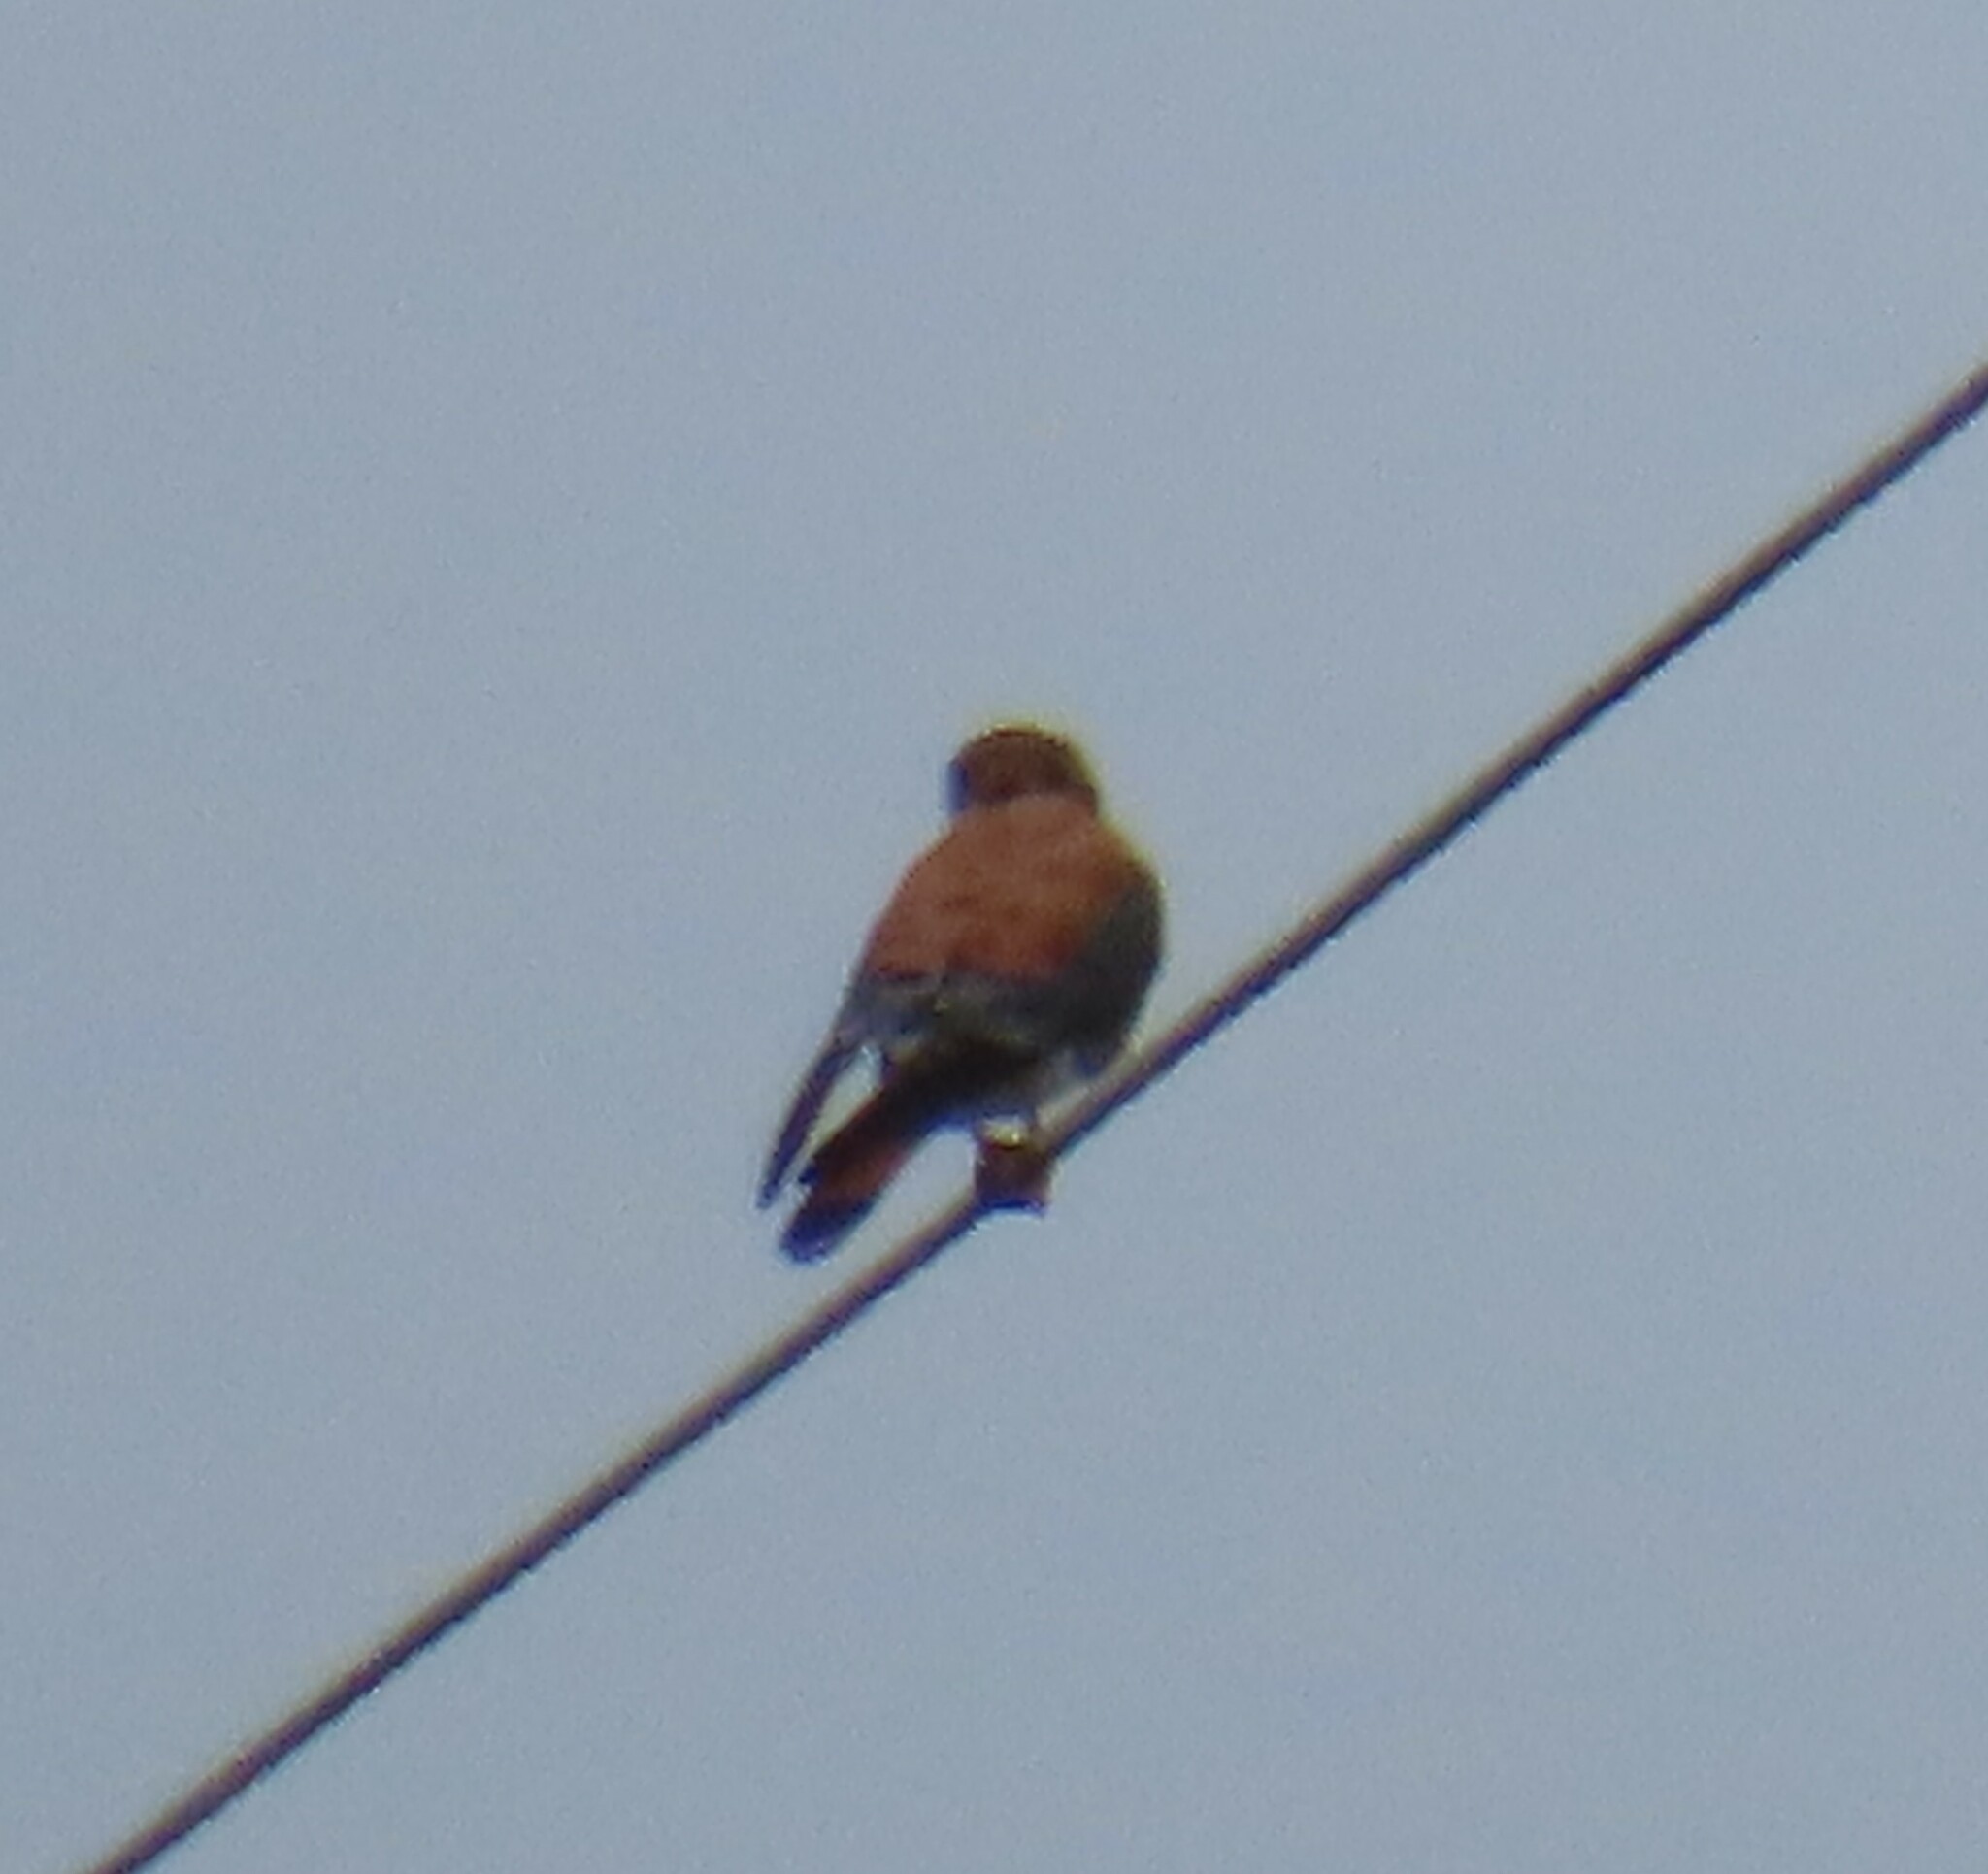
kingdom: Animalia
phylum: Chordata
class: Aves
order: Falconiformes
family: Falconidae
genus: Falco
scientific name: Falco sparverius
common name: American kestrel
